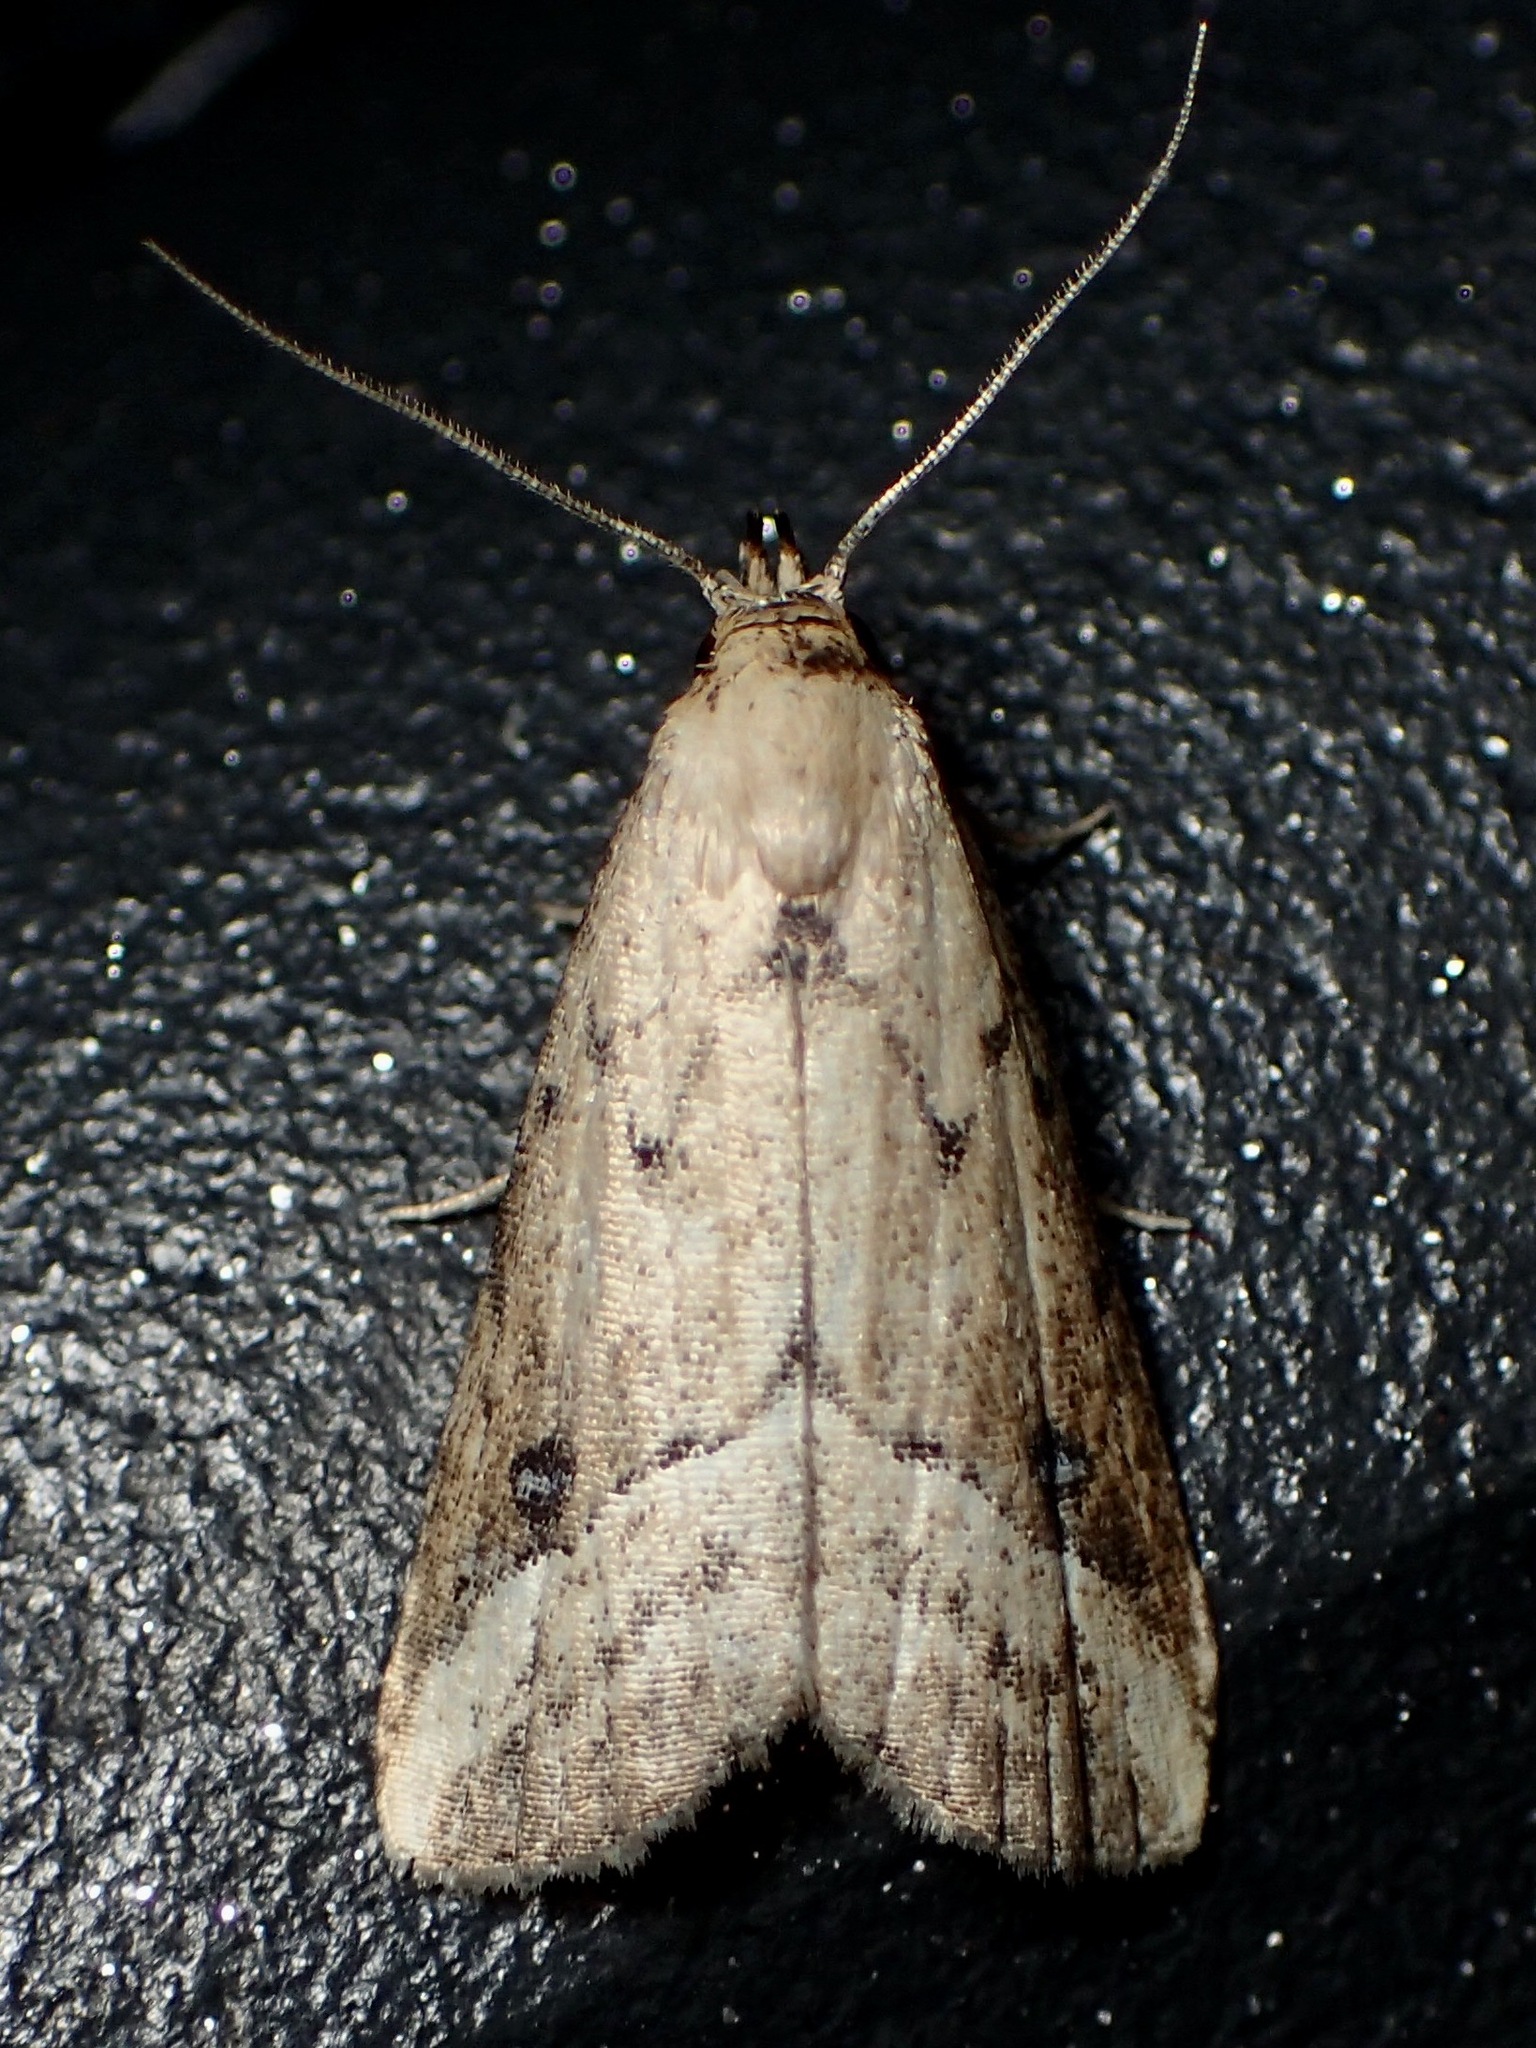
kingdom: Animalia
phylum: Arthropoda
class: Insecta
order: Lepidoptera
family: Erebidae
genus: Luceria
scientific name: Luceria oculalis
